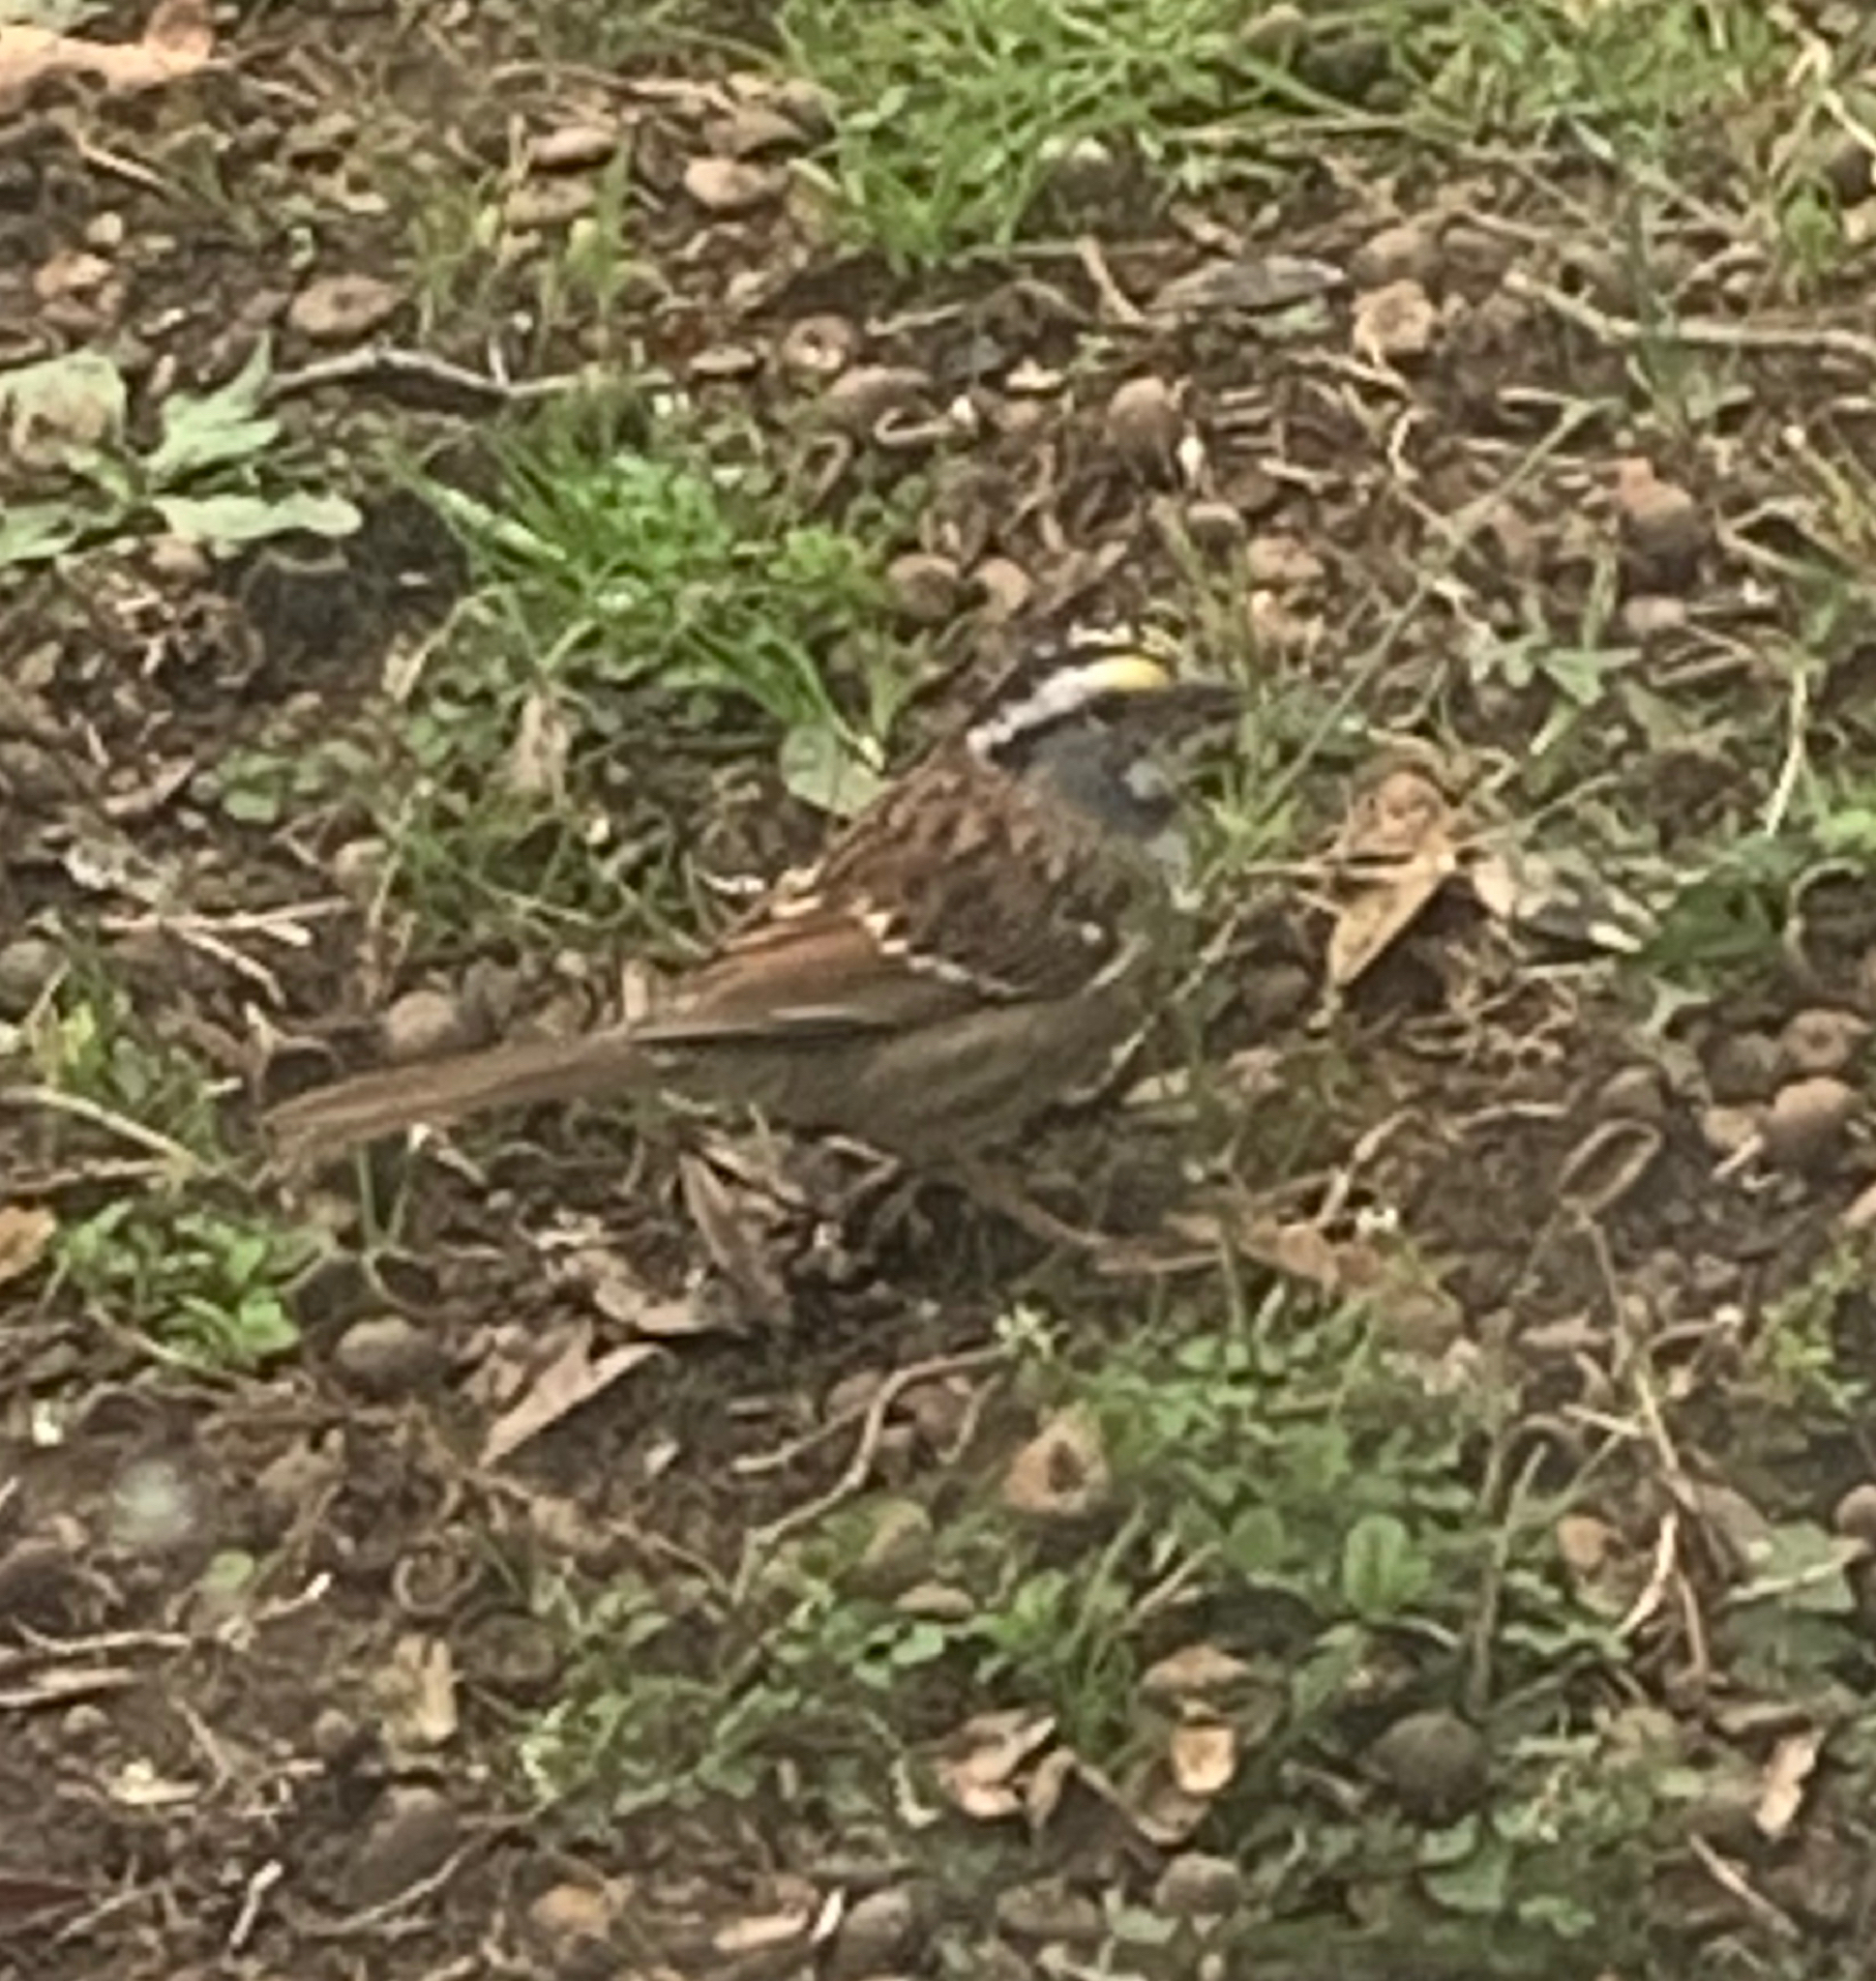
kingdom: Animalia
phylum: Chordata
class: Aves
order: Passeriformes
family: Passerellidae
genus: Zonotrichia
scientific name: Zonotrichia albicollis
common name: White-throated sparrow
